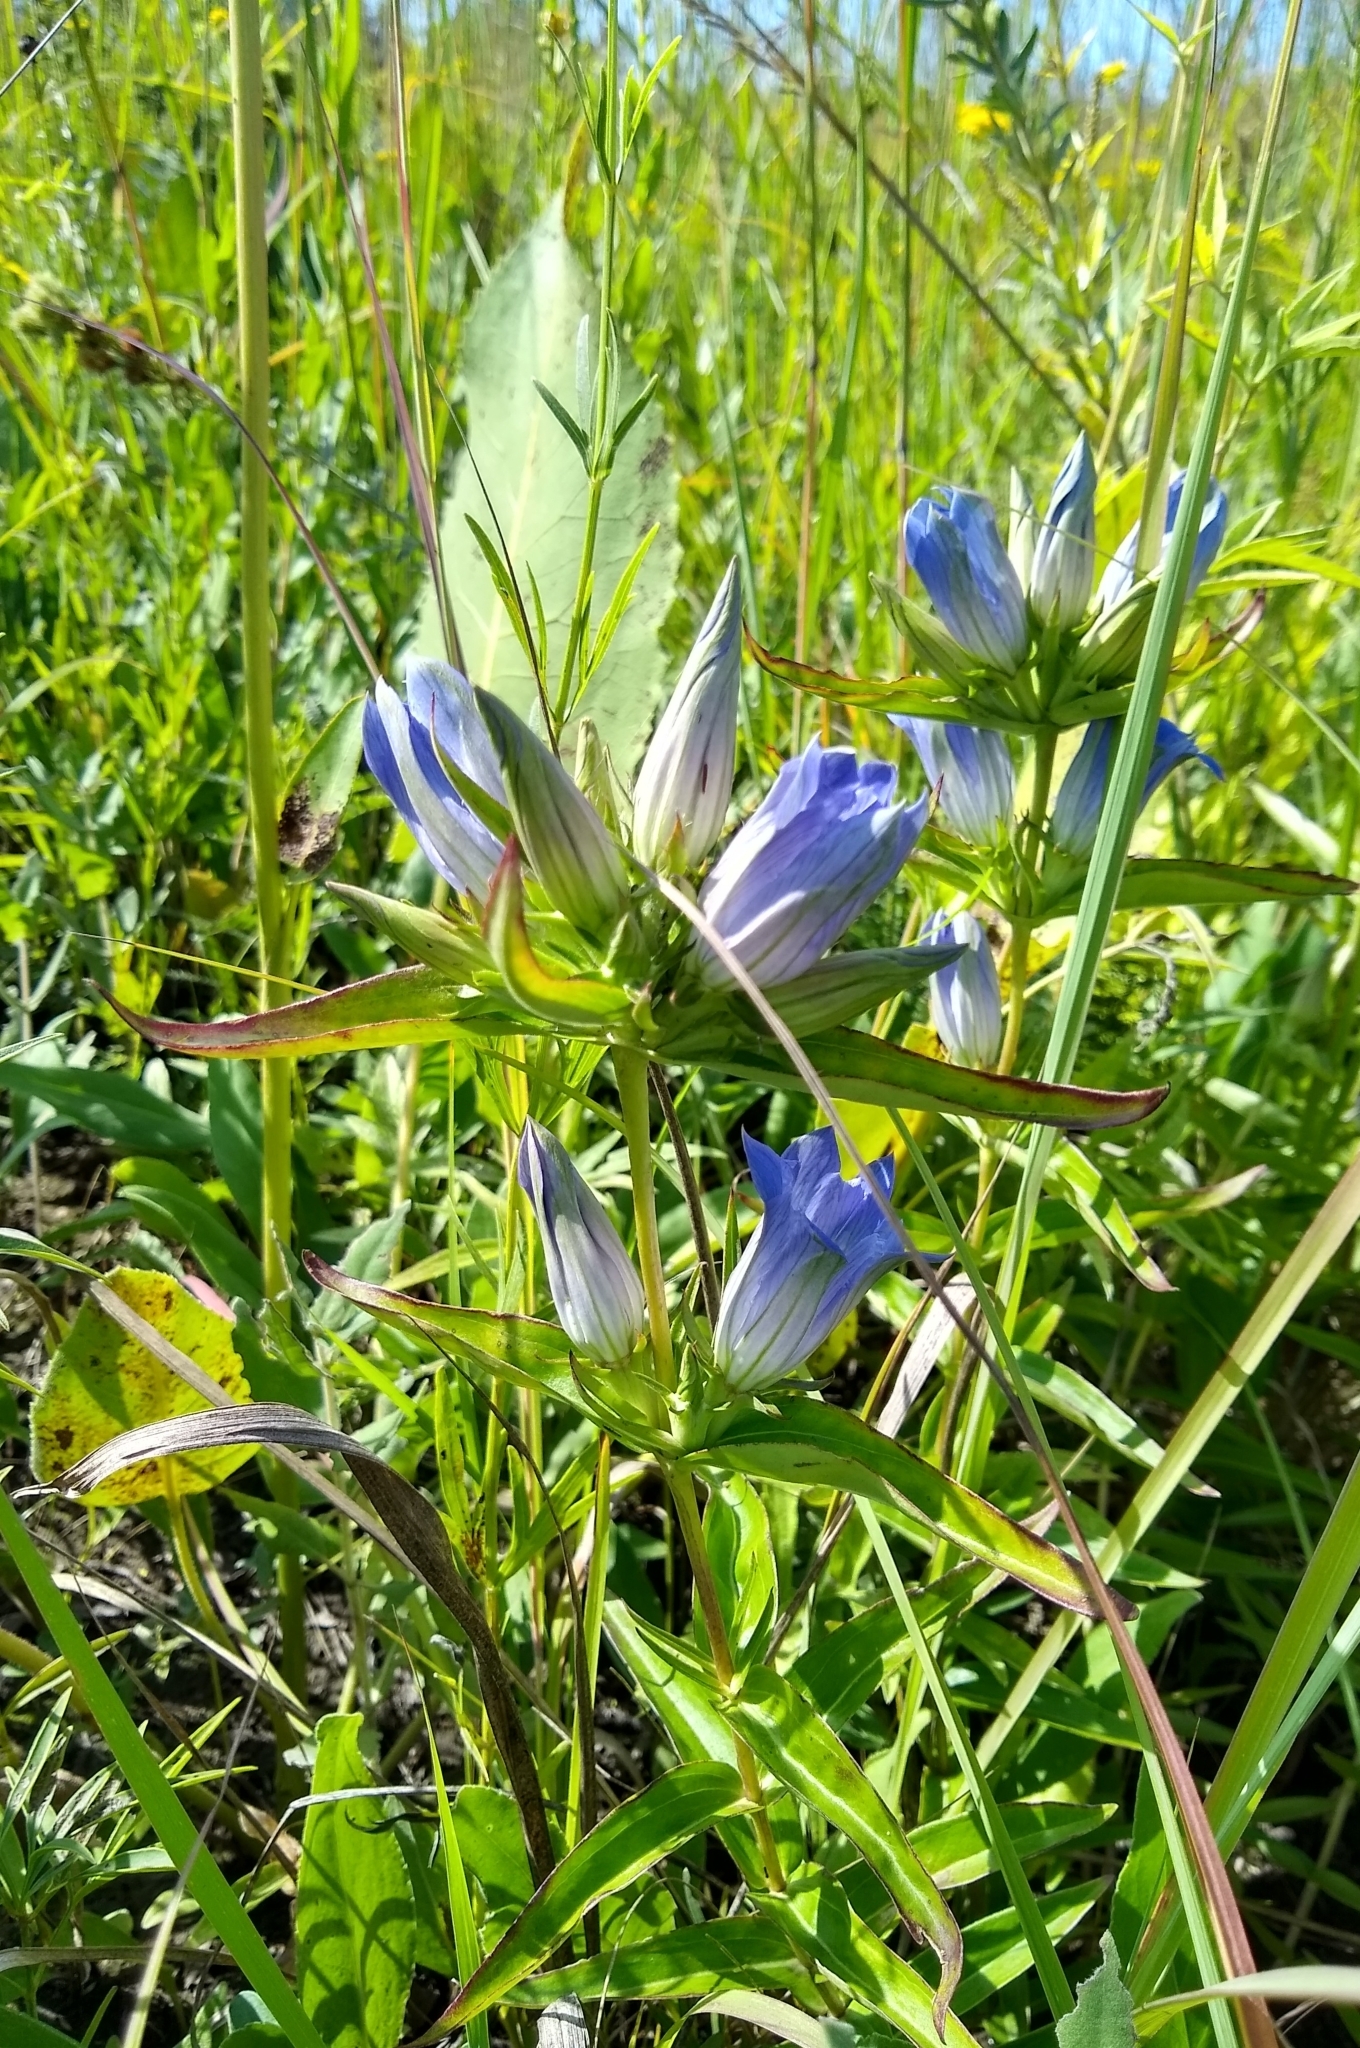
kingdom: Plantae
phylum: Tracheophyta
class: Magnoliopsida
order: Gentianales
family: Gentianaceae
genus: Gentiana
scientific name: Gentiana puberulenta
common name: Downy gentian
